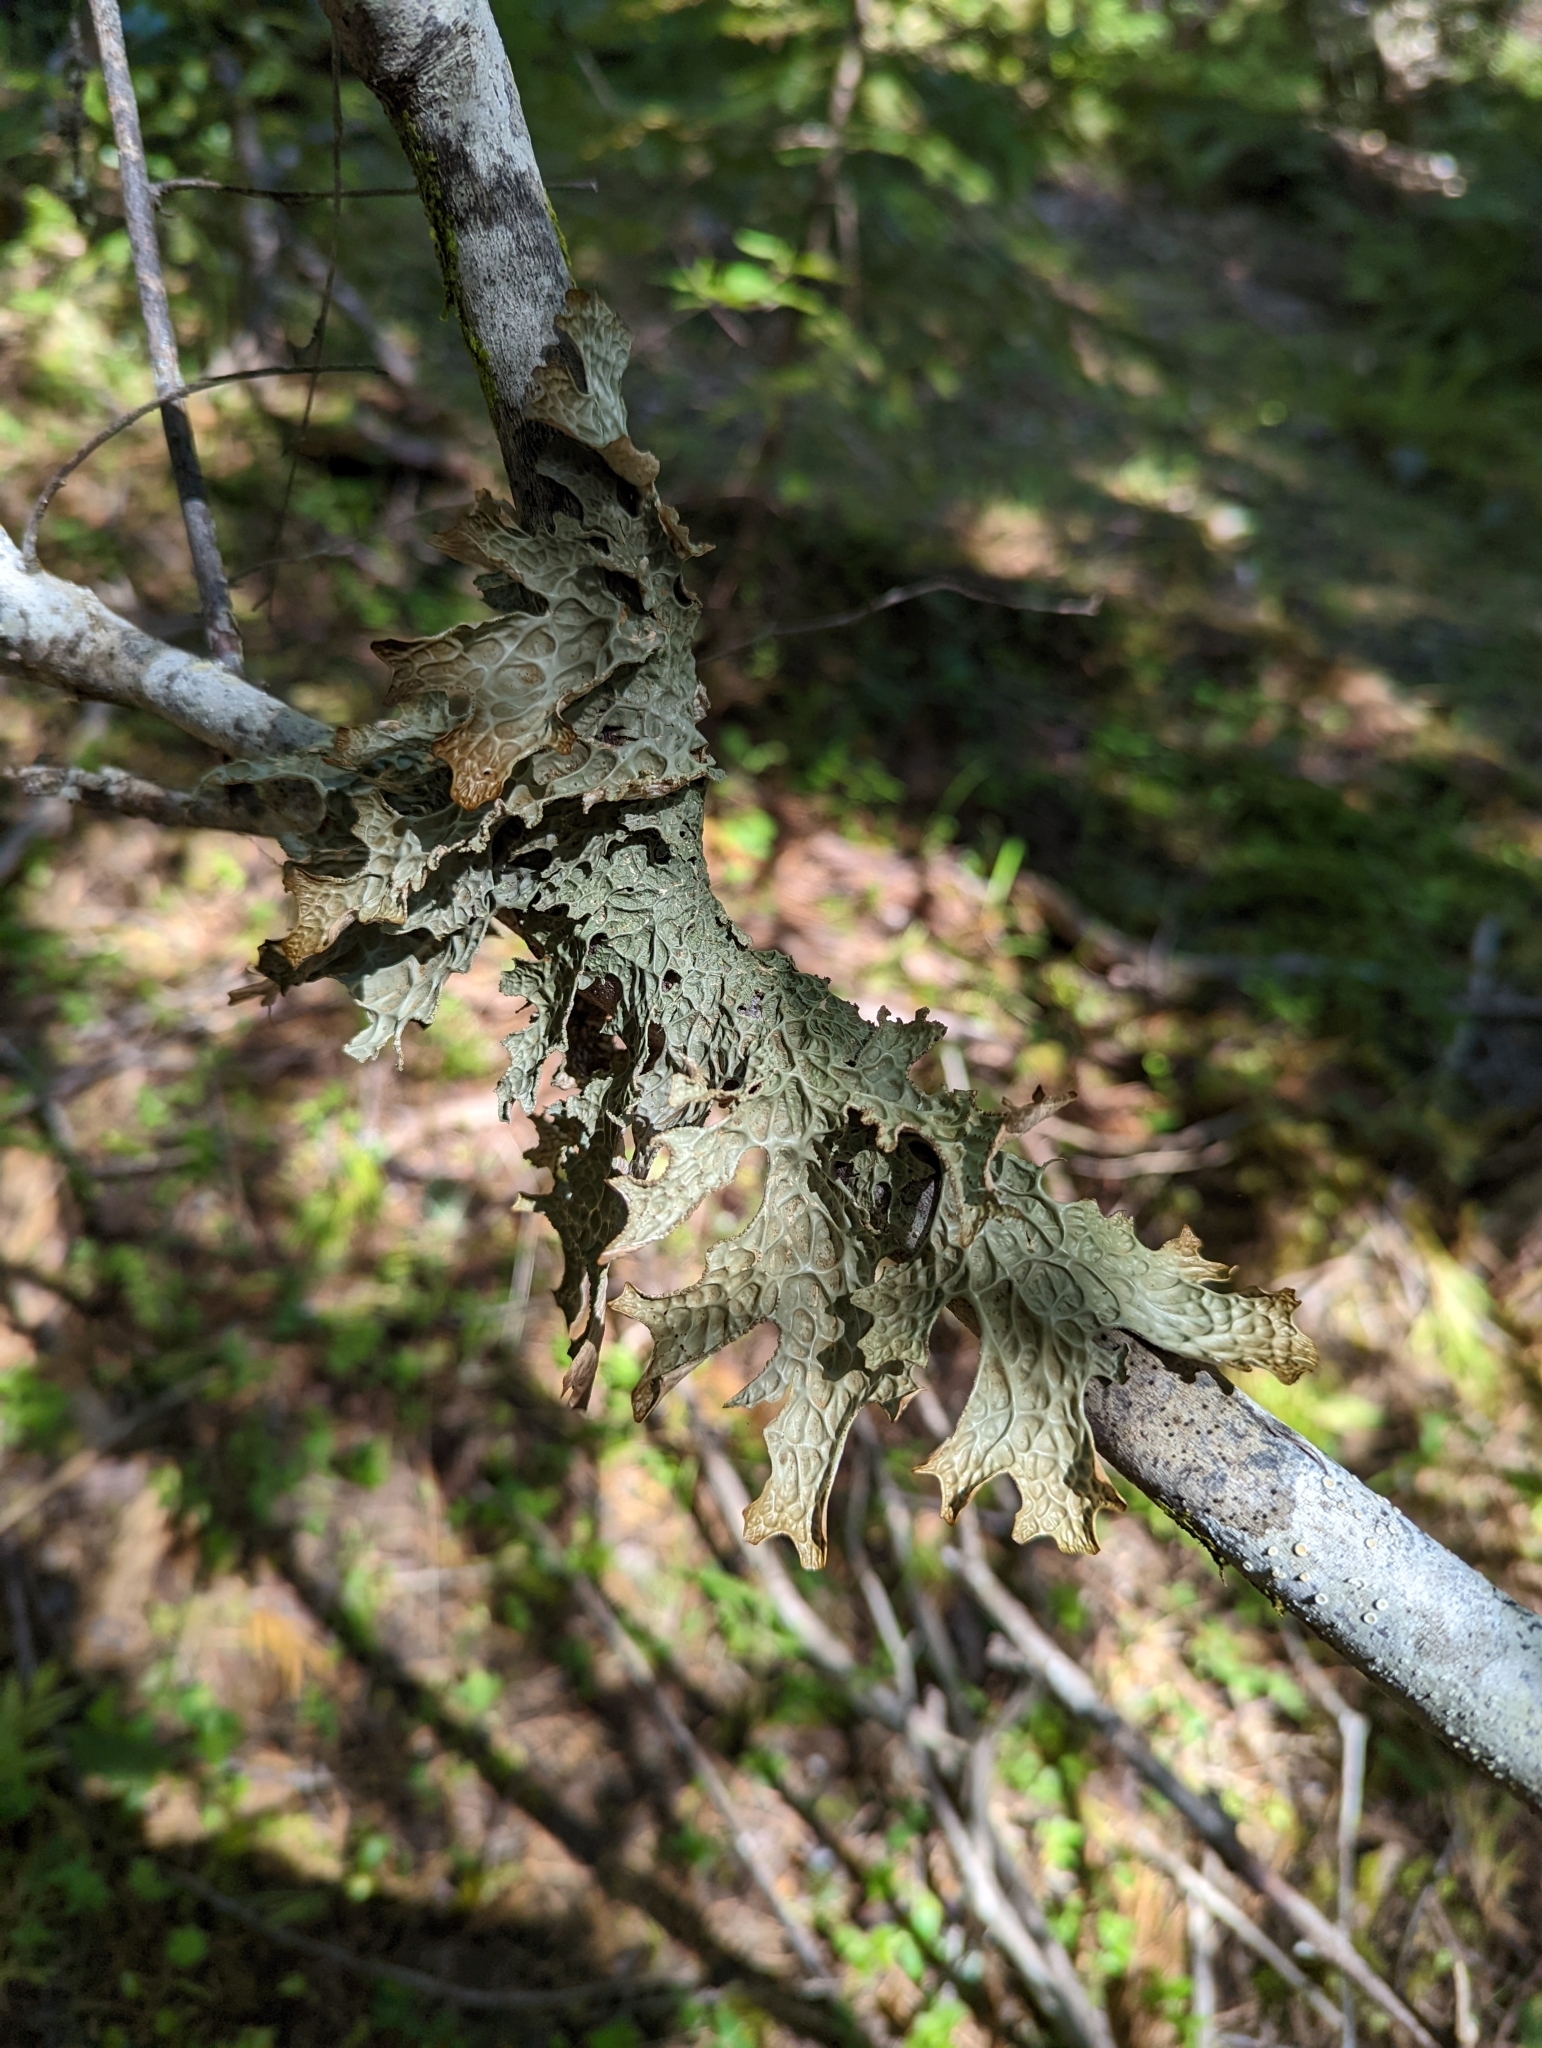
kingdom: Fungi
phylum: Ascomycota
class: Lecanoromycetes
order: Peltigerales
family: Lobariaceae
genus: Lobaria
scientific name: Lobaria pulmonaria
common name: Lungwort
